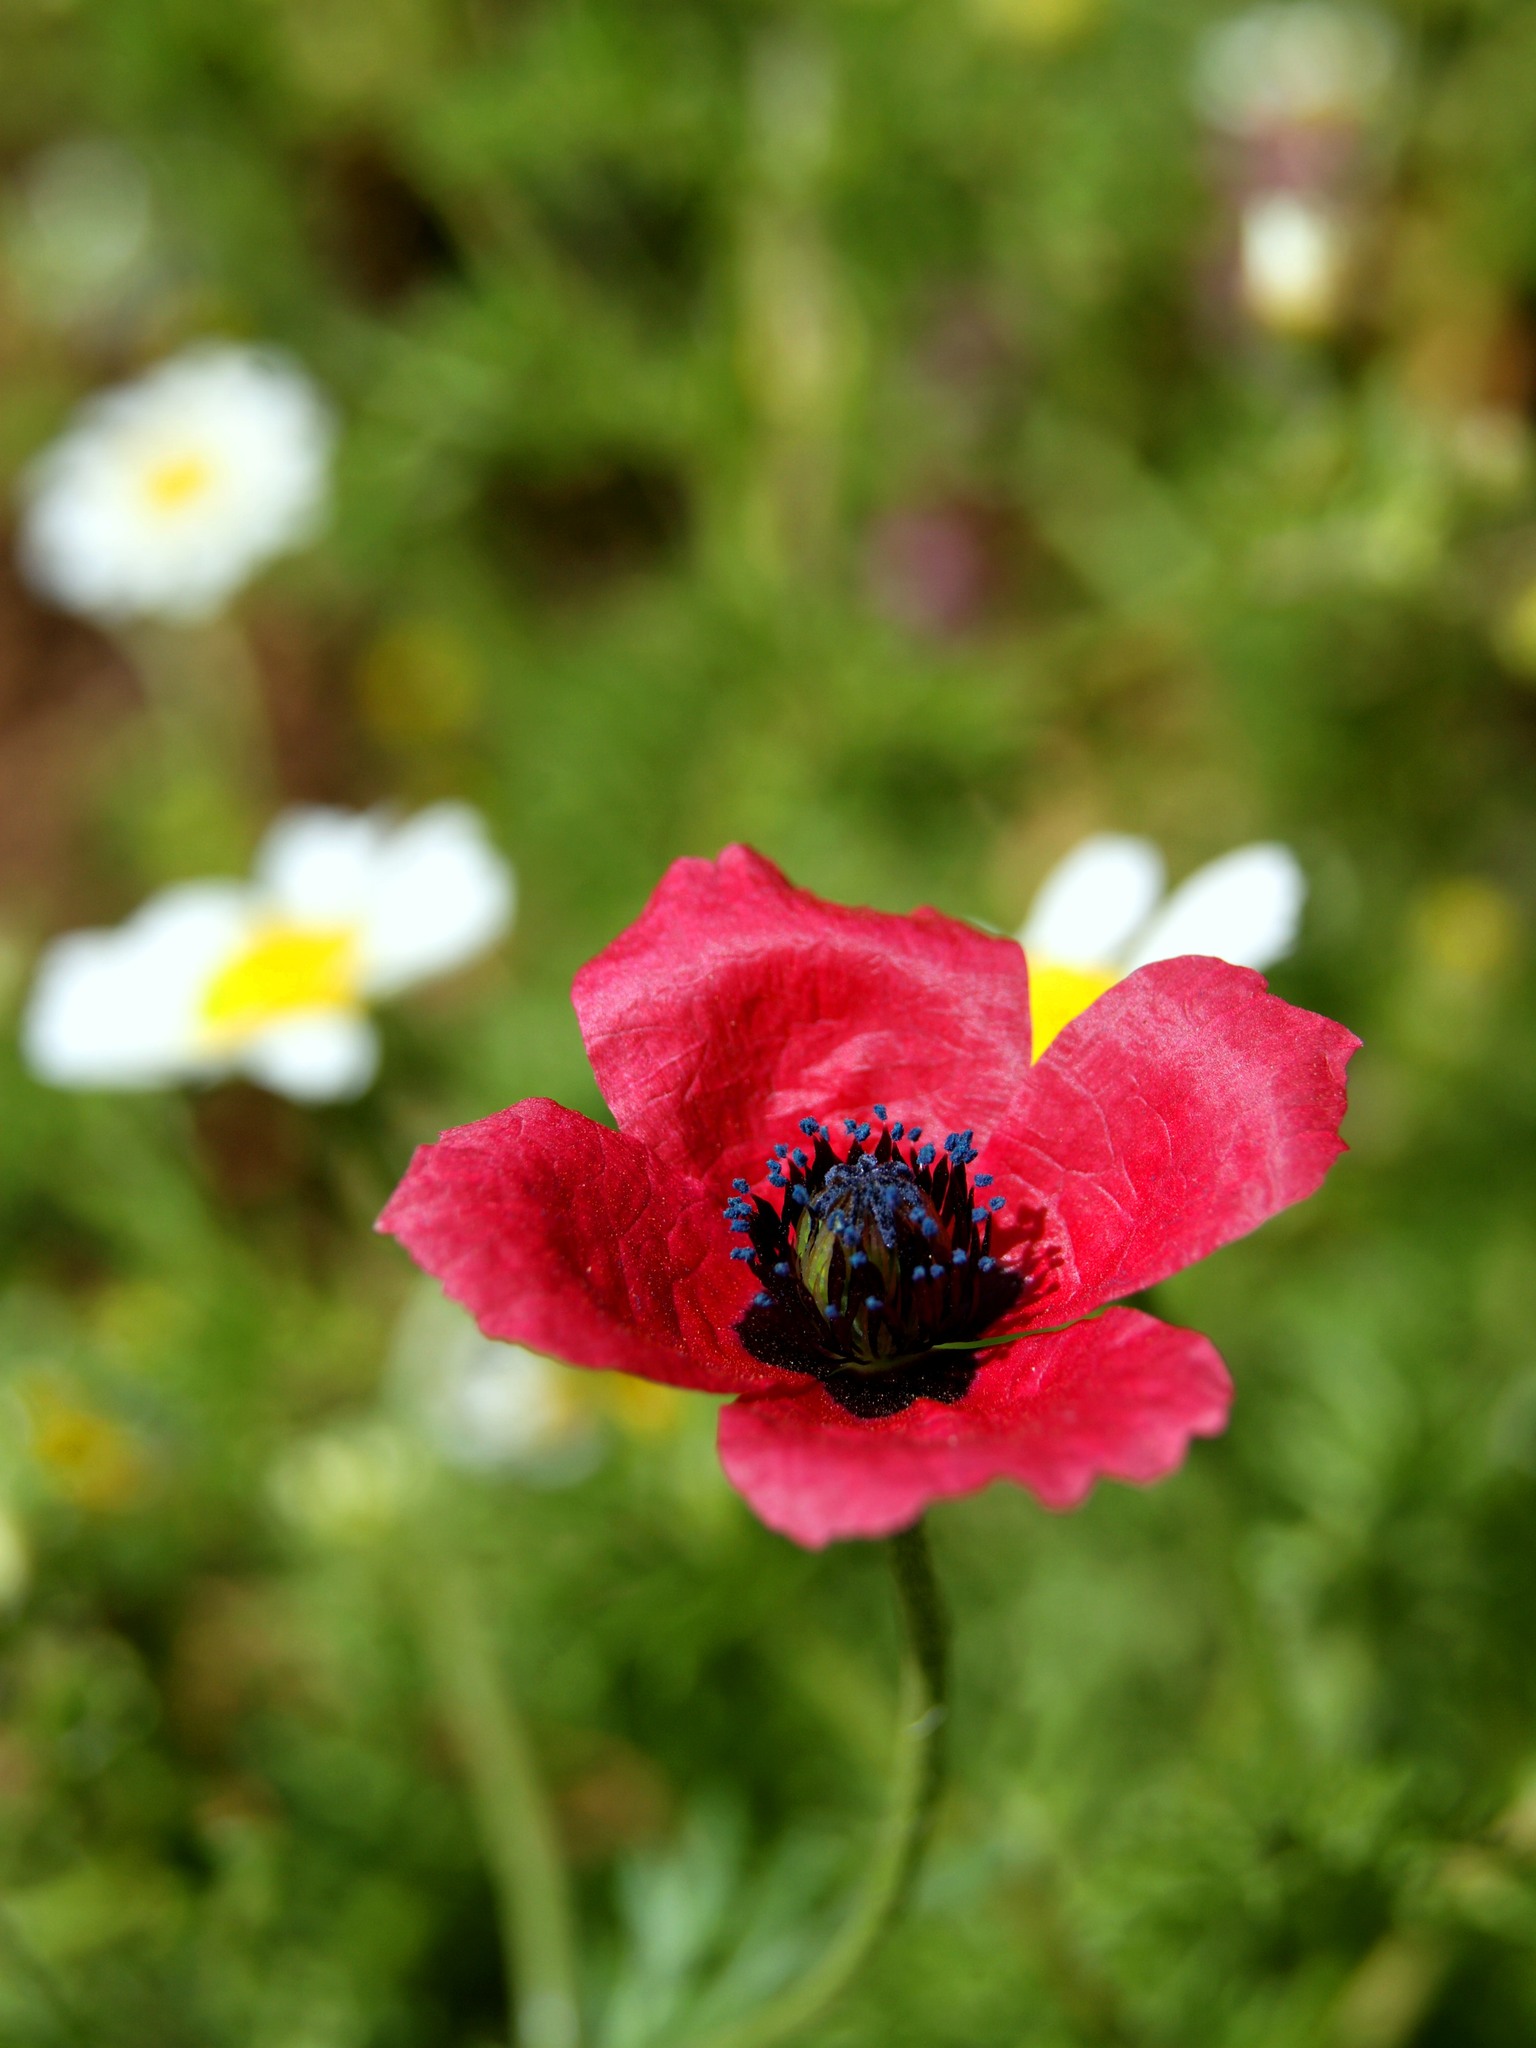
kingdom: Plantae
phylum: Tracheophyta
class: Magnoliopsida
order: Ranunculales
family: Papaveraceae
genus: Roemeria
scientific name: Roemeria hispida
